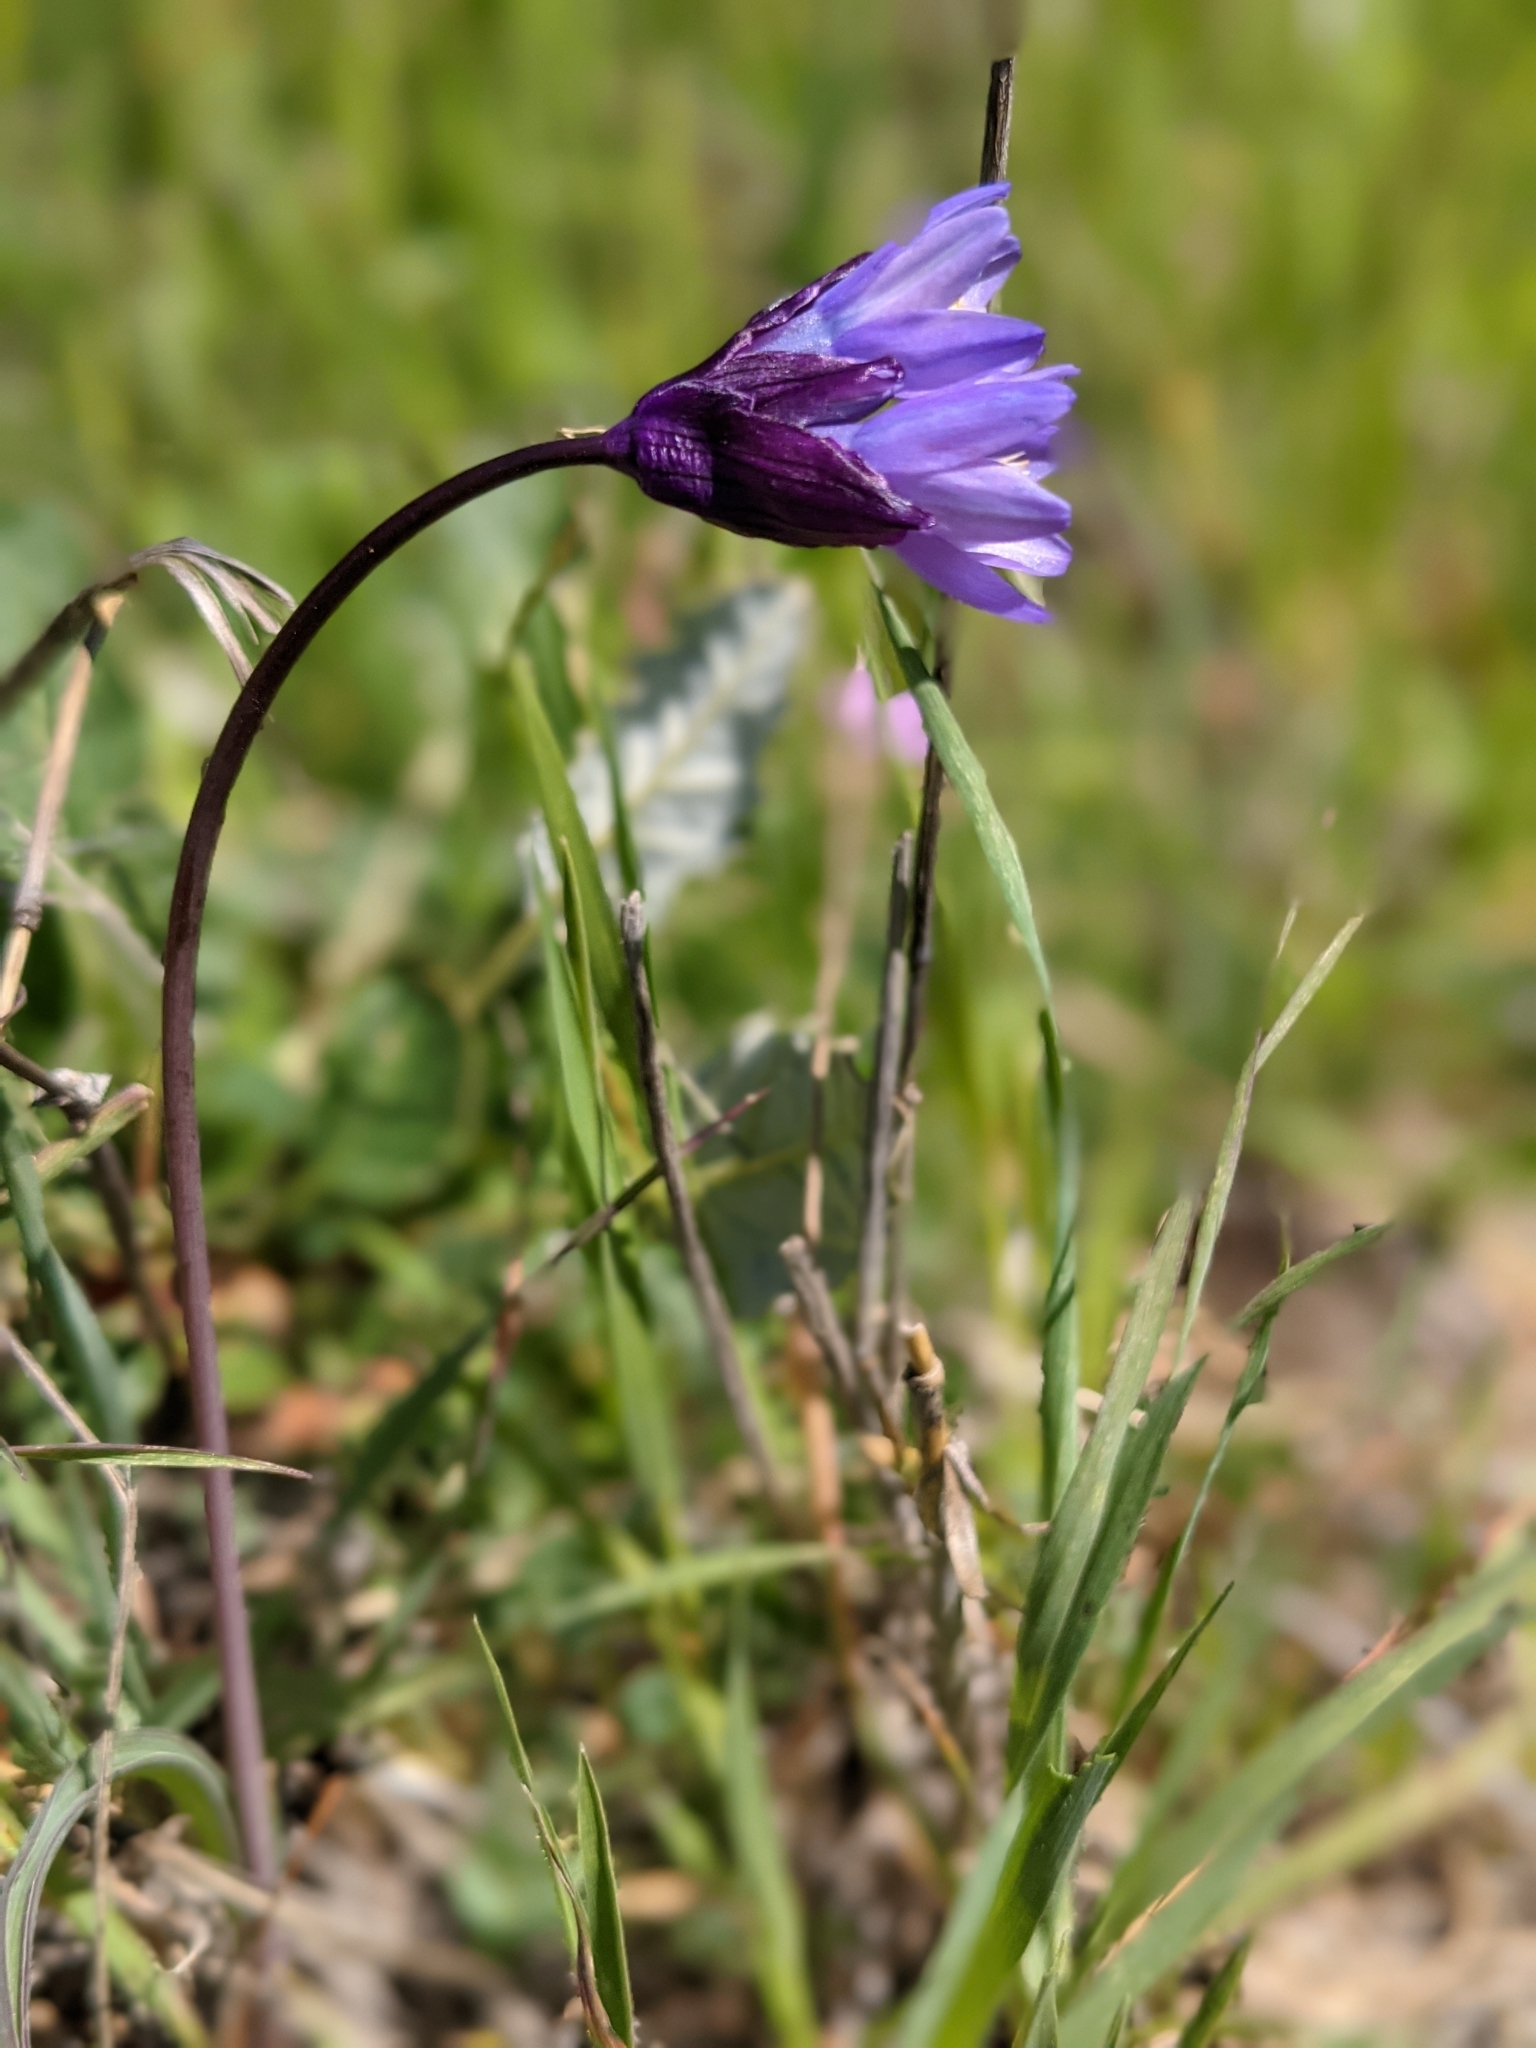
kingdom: Plantae
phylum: Tracheophyta
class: Liliopsida
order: Asparagales
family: Asparagaceae
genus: Dipterostemon
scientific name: Dipterostemon capitatus
